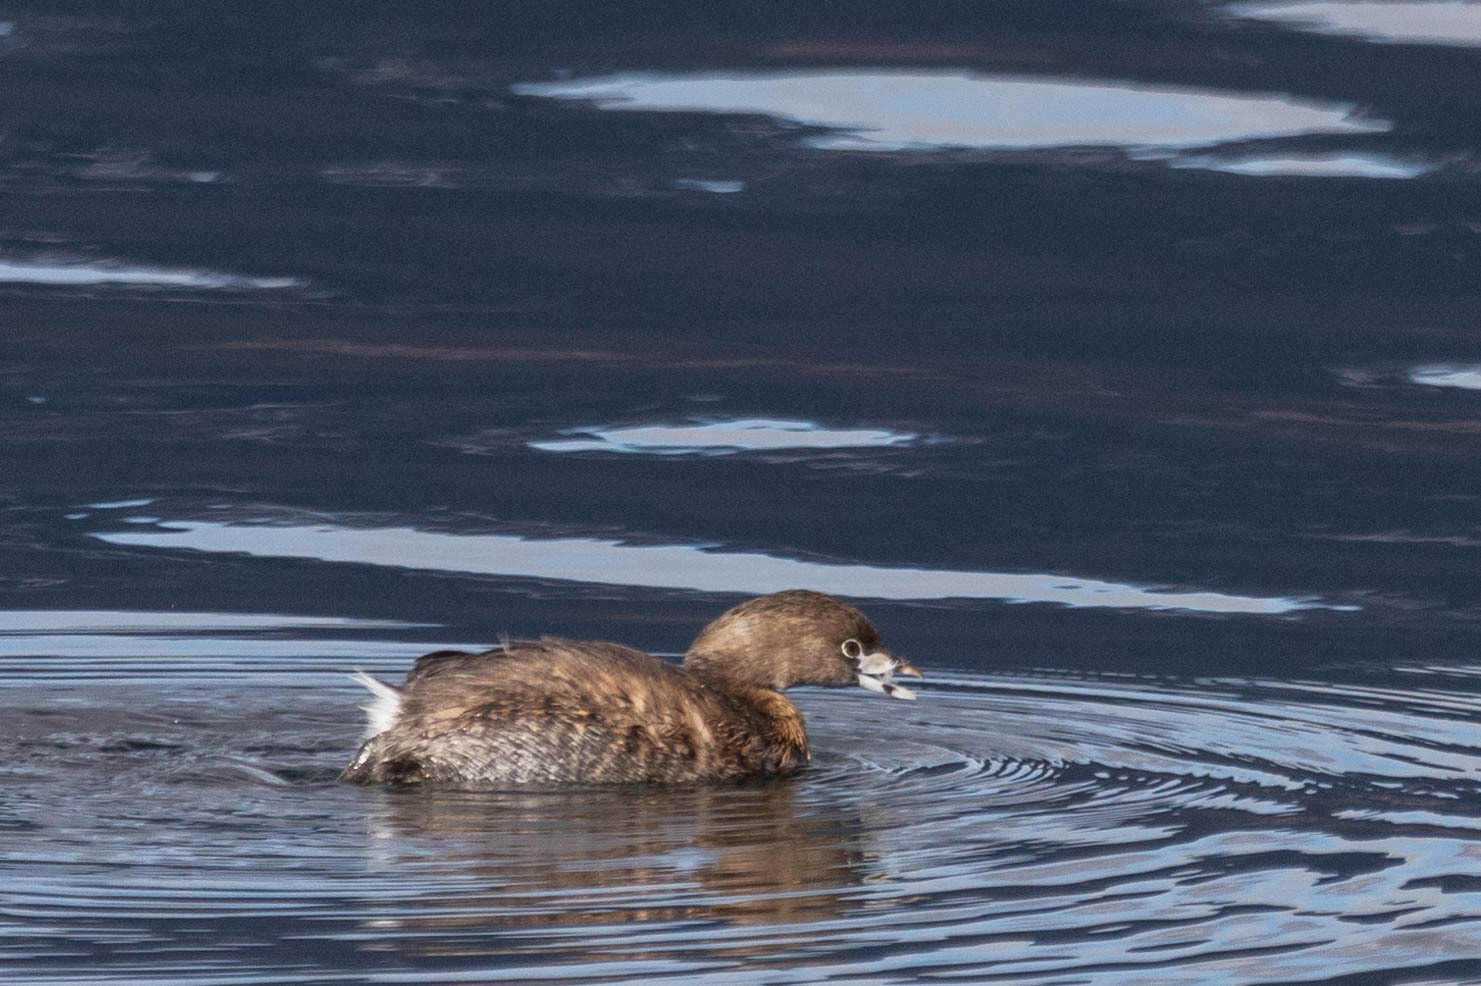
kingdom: Animalia
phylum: Chordata
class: Aves
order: Podicipediformes
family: Podicipedidae
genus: Podilymbus
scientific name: Podilymbus podiceps
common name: Pied-billed grebe
